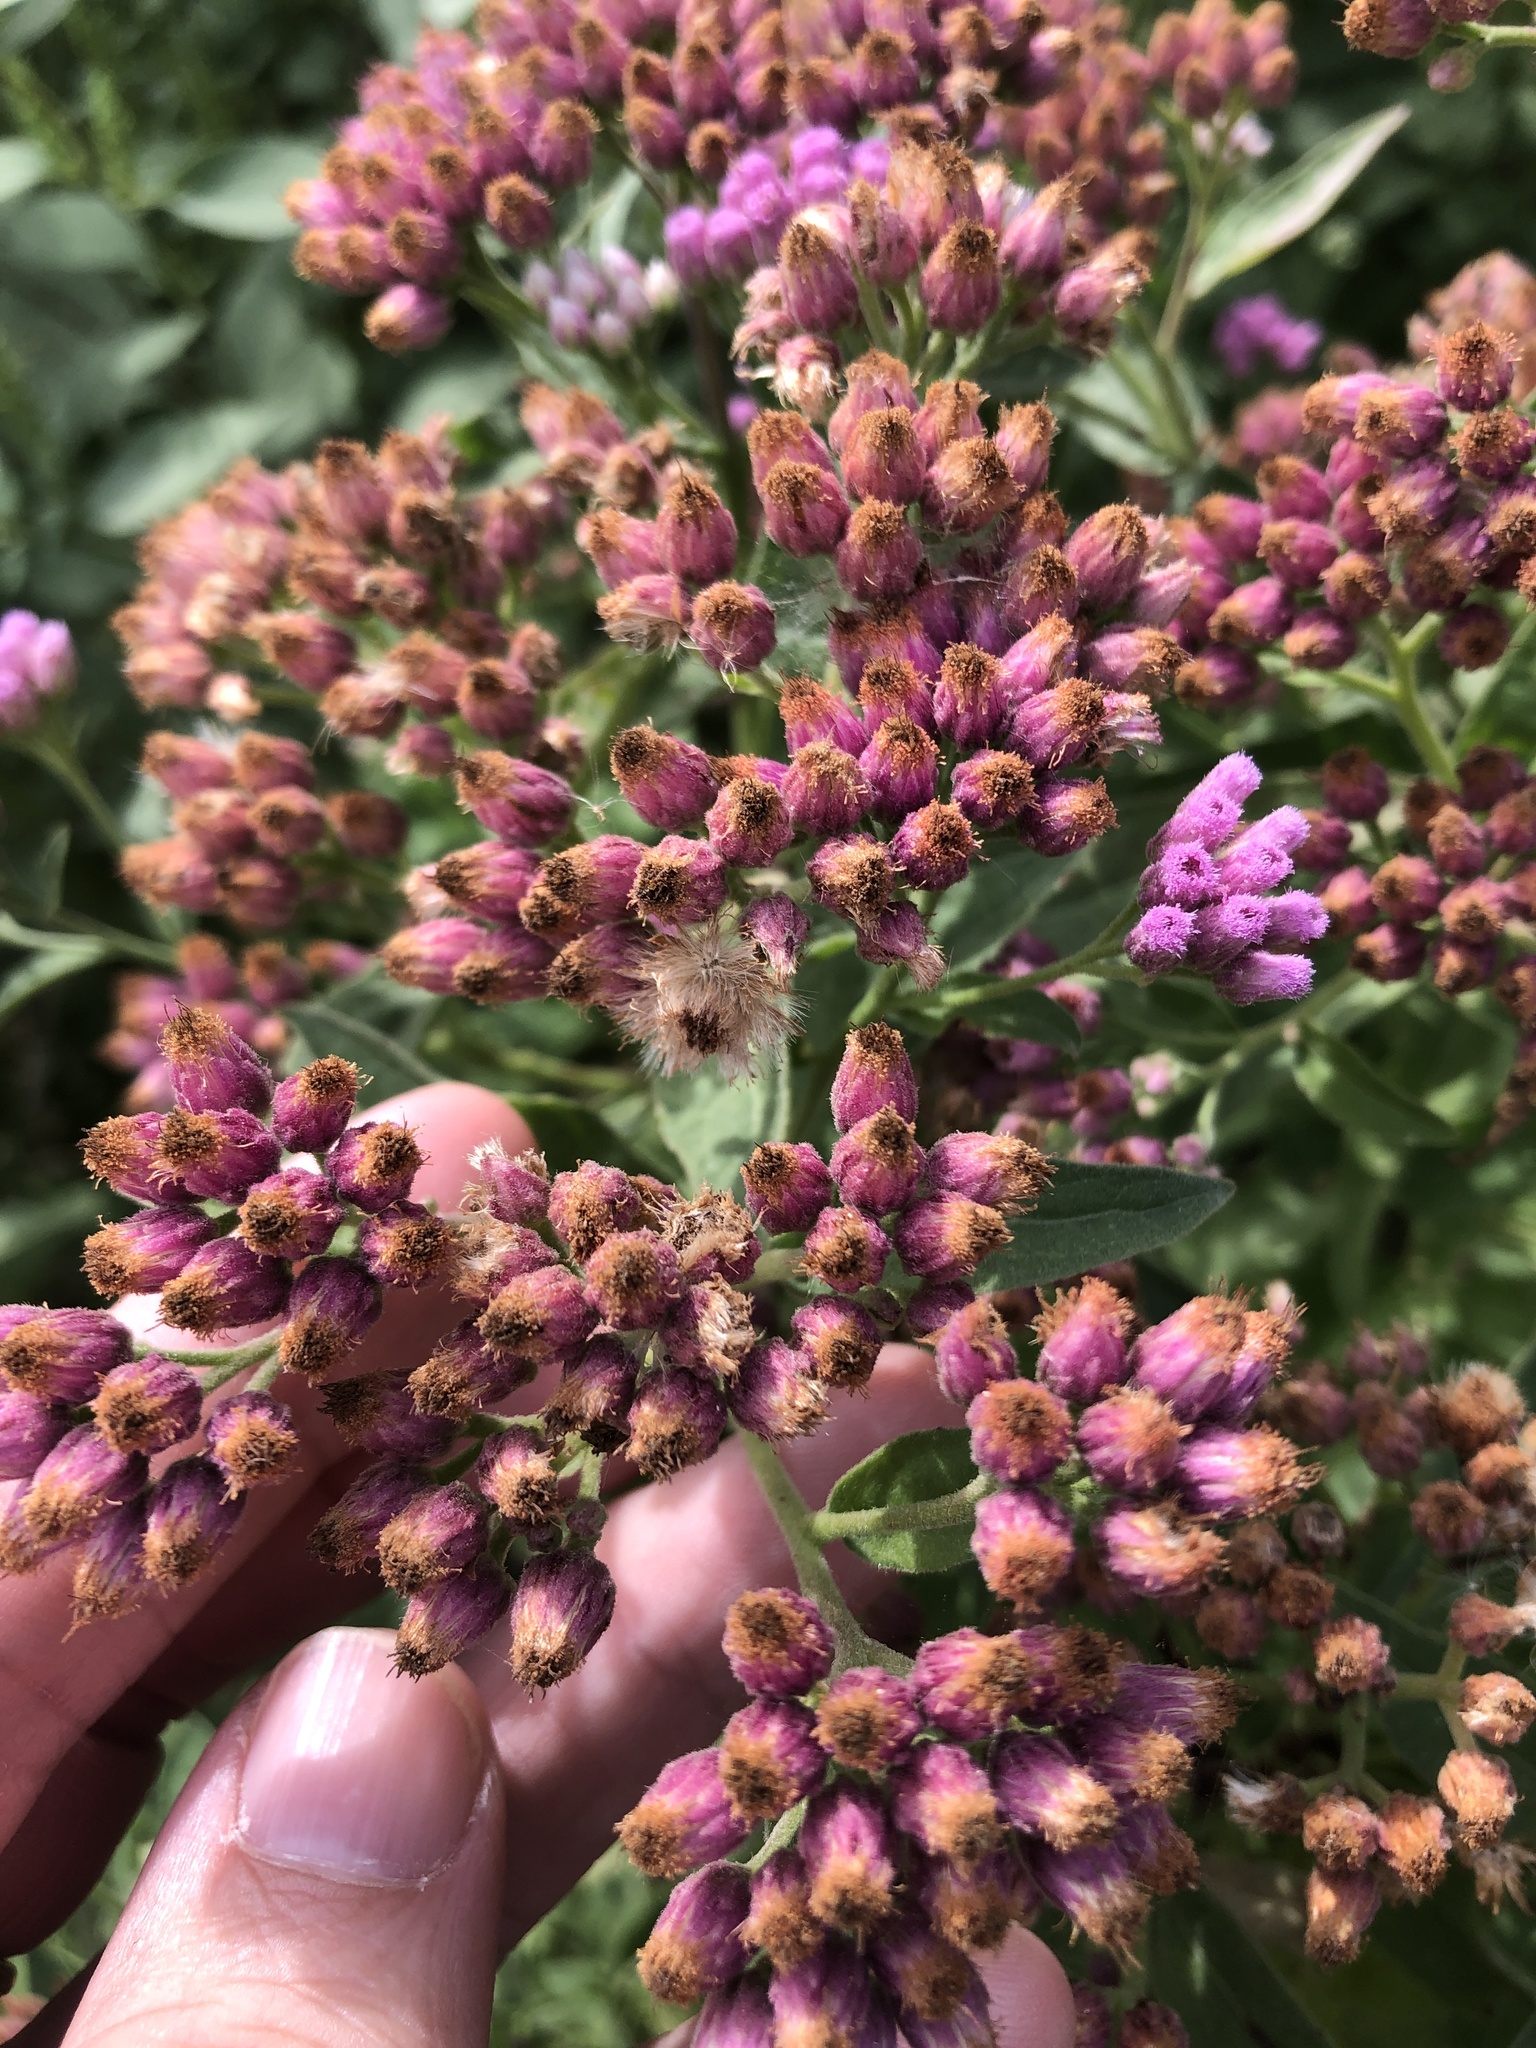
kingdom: Plantae
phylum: Tracheophyta
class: Magnoliopsida
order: Asterales
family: Asteraceae
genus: Pluchea
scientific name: Pluchea odorata
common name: Saltmarsh fleabane
